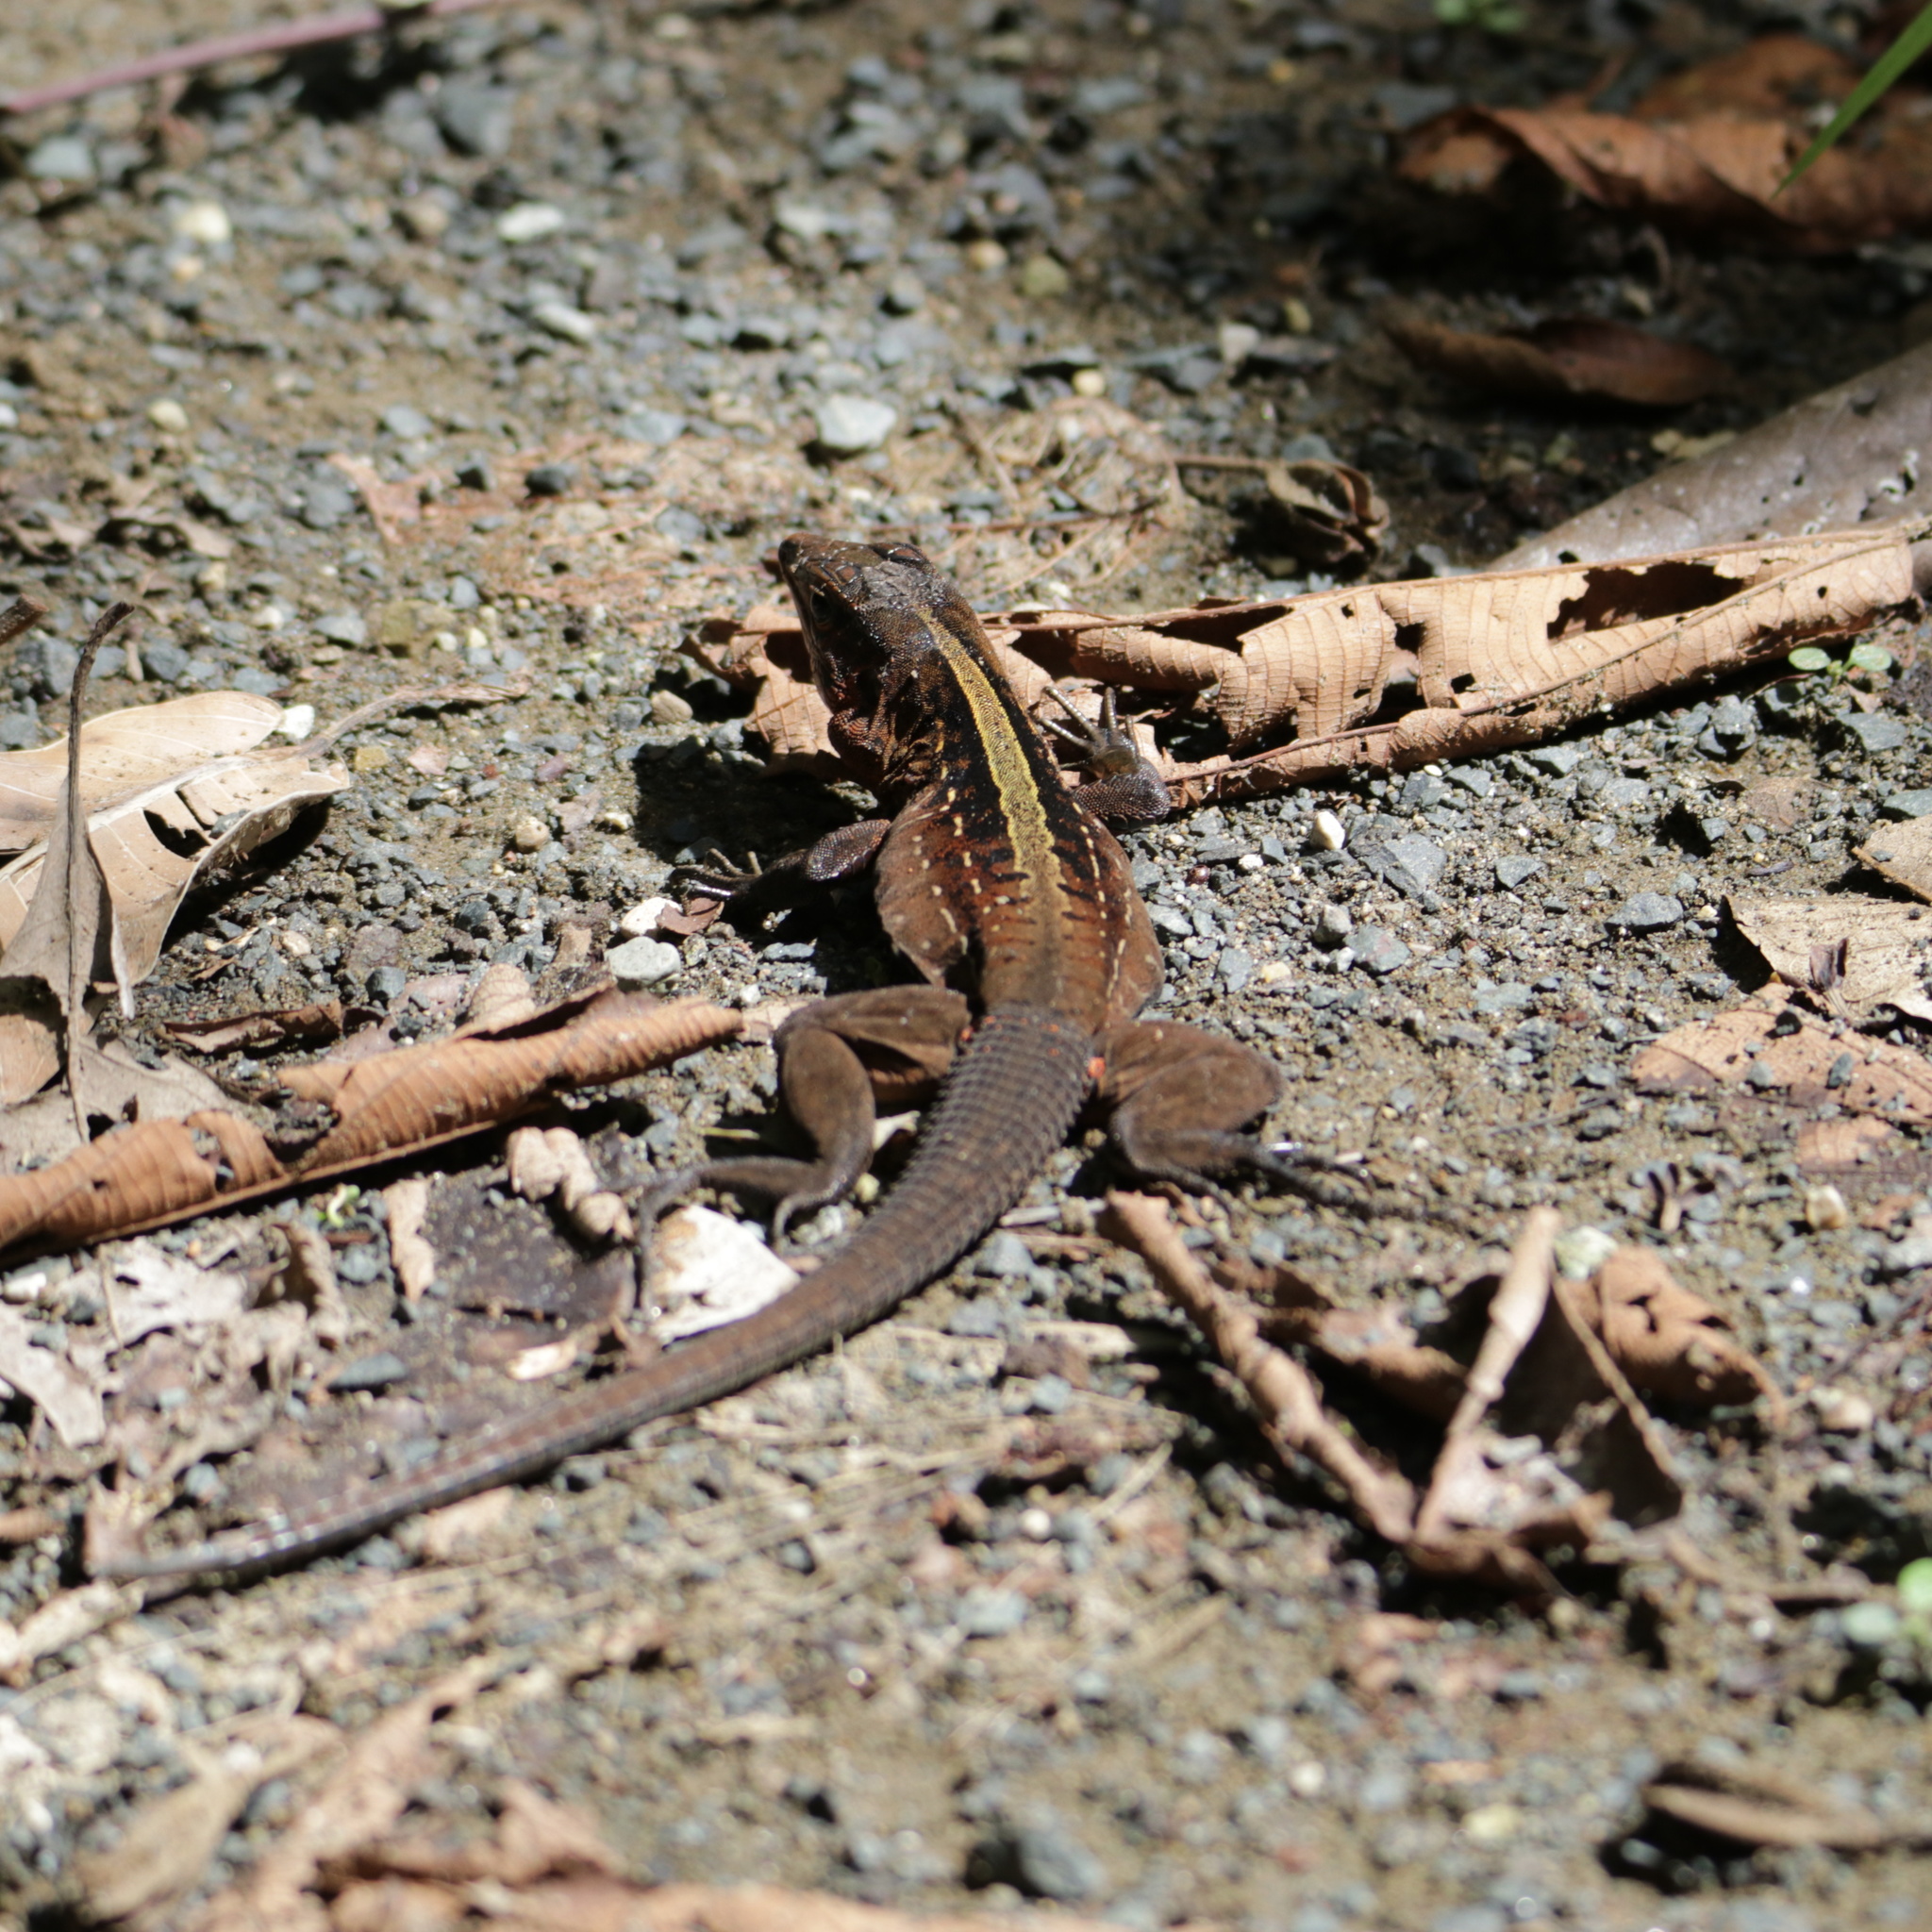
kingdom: Animalia
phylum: Chordata
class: Squamata
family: Teiidae
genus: Holcosus
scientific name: Holcosus festivus
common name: Middle american ameiva
